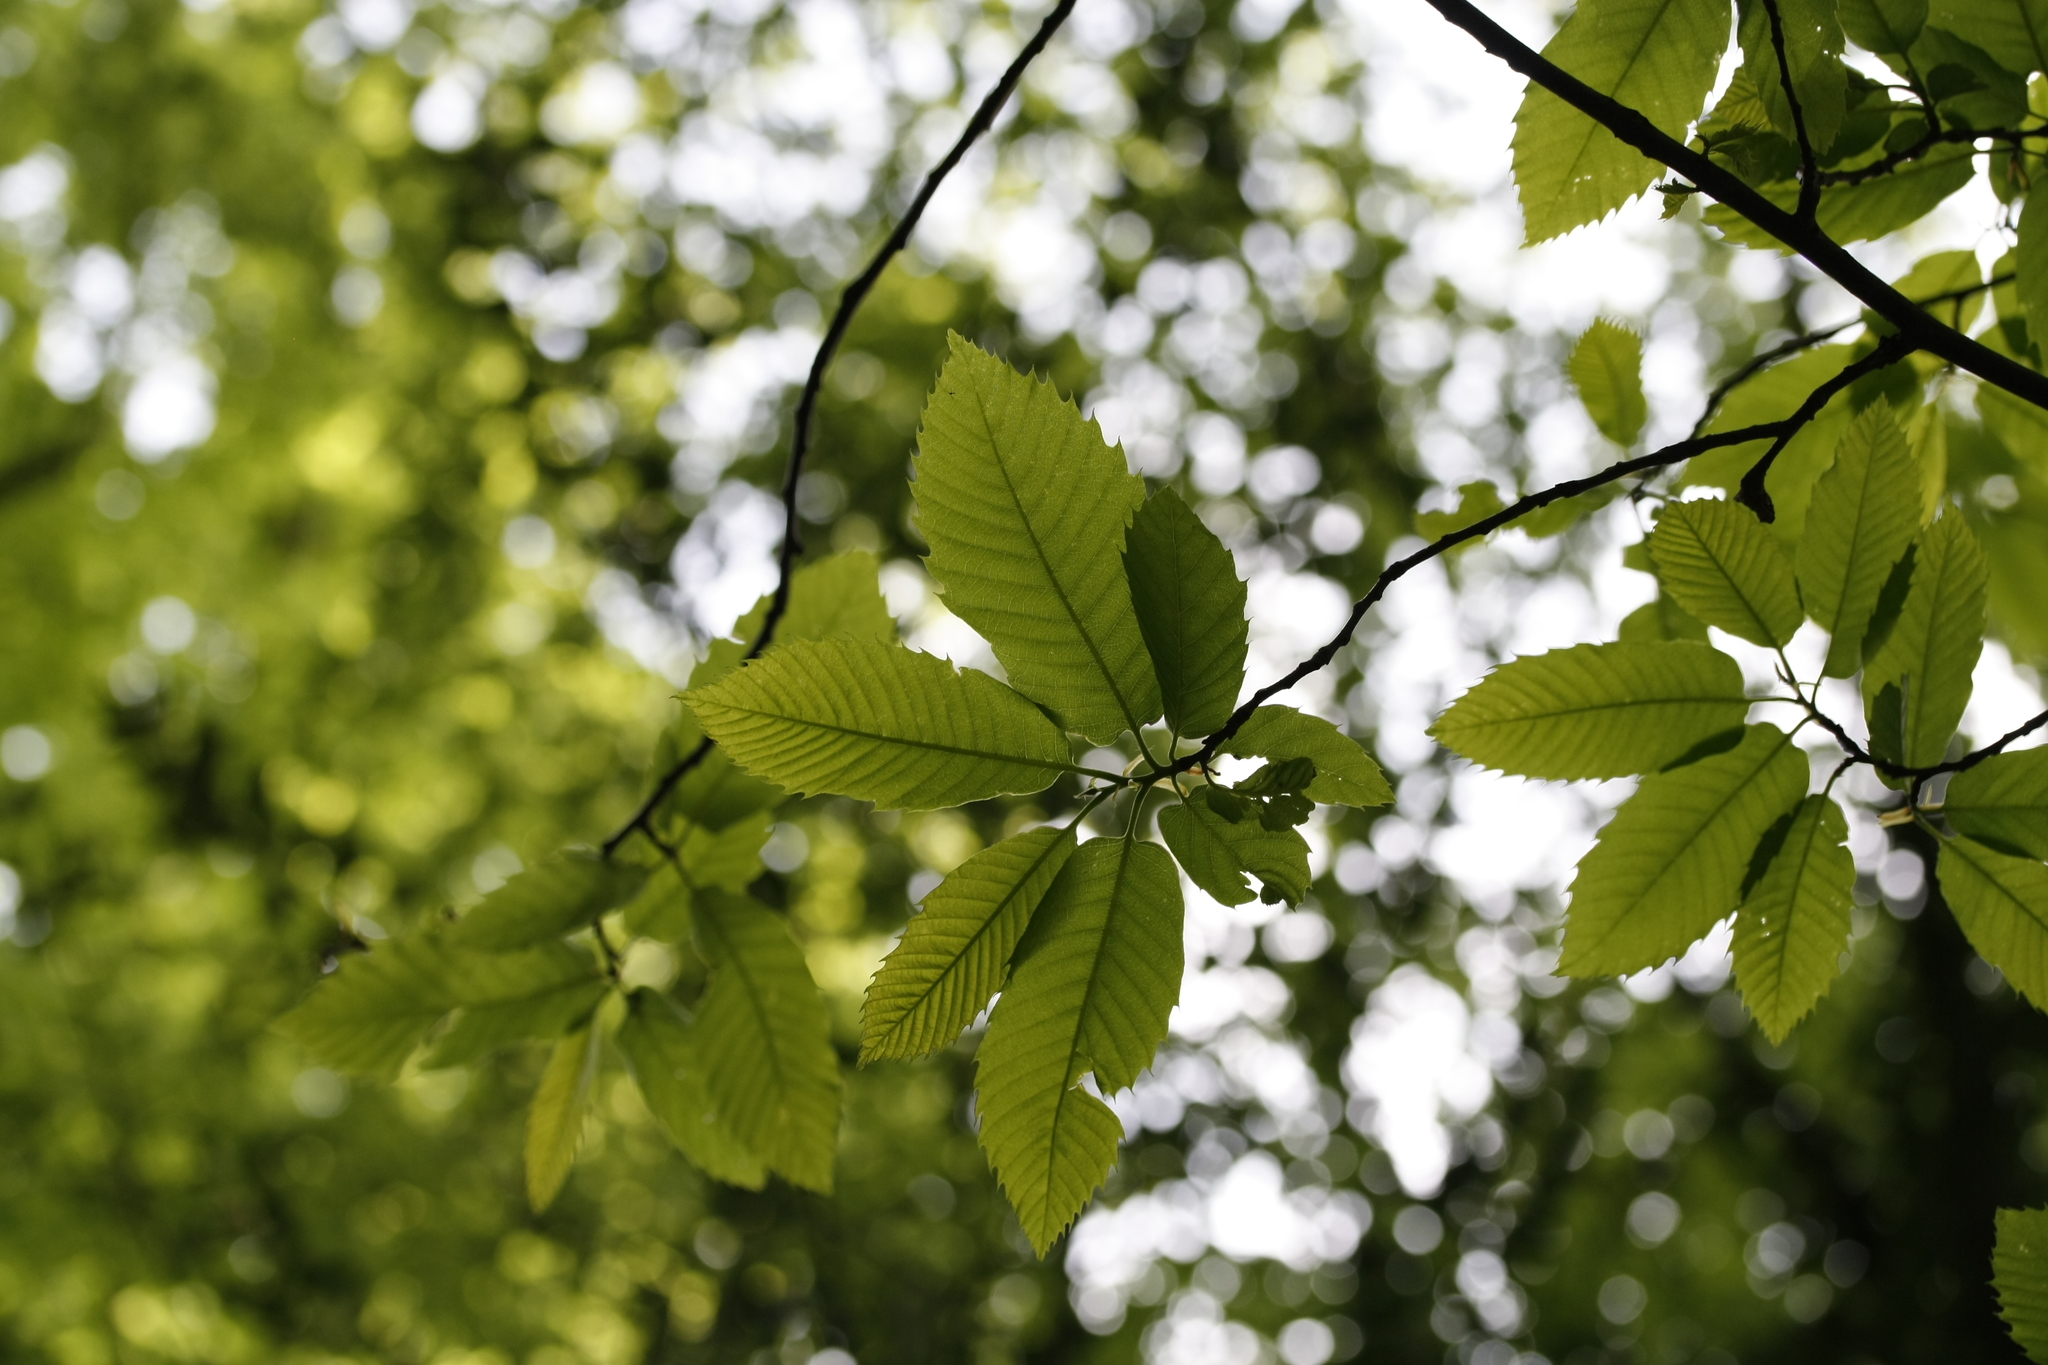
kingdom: Plantae
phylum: Tracheophyta
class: Magnoliopsida
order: Fagales
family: Fagaceae
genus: Castanea
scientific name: Castanea sativa
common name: Sweet chestnut
